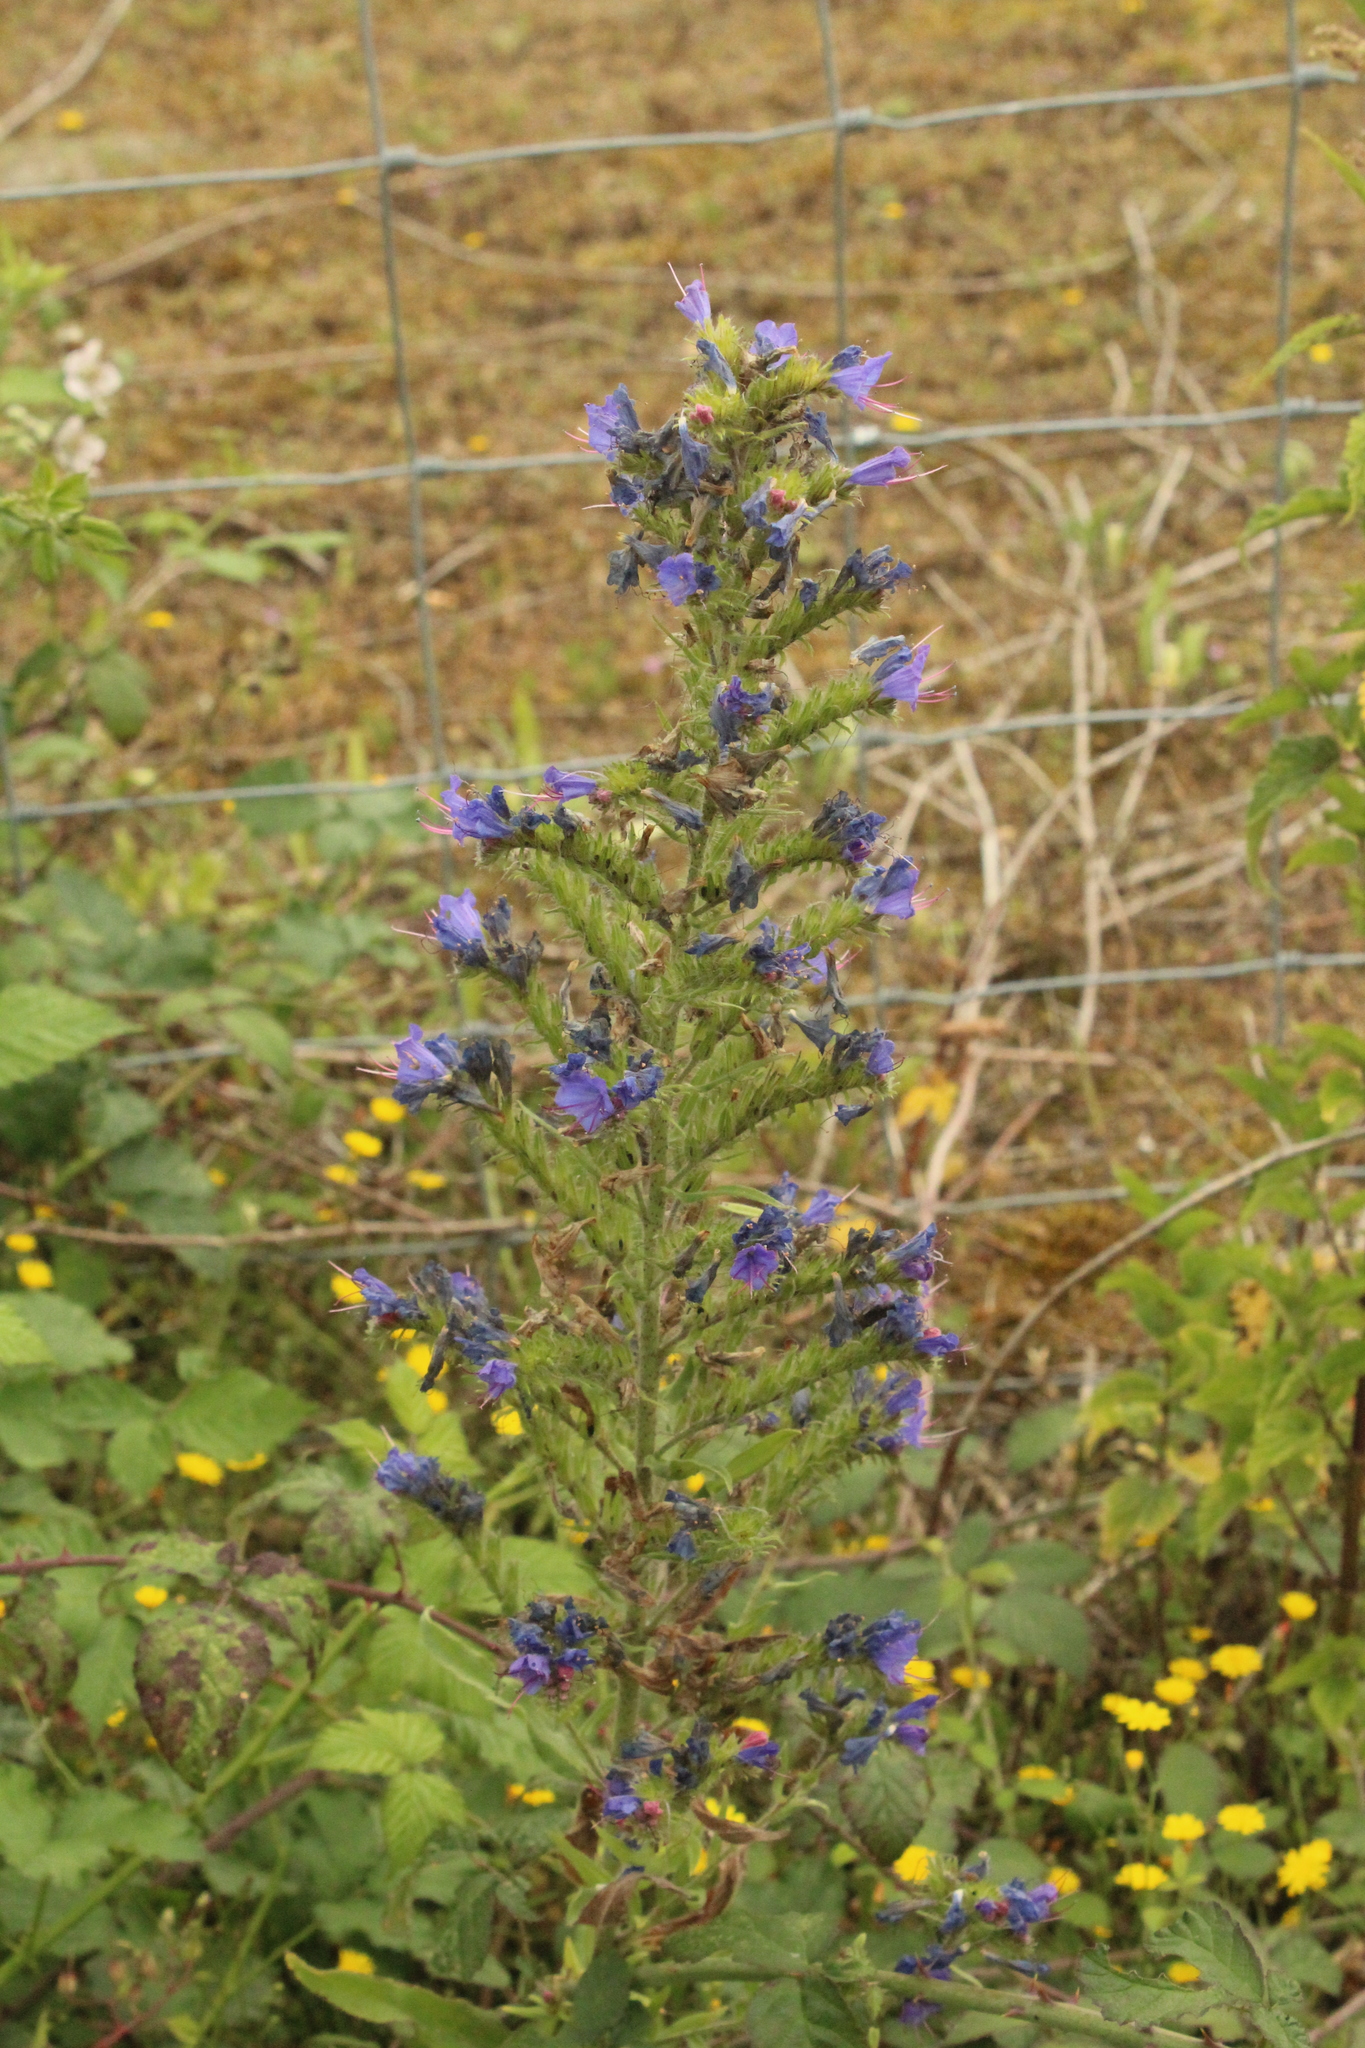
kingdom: Plantae
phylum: Tracheophyta
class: Magnoliopsida
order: Boraginales
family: Boraginaceae
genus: Echium
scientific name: Echium vulgare
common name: Common viper's bugloss
